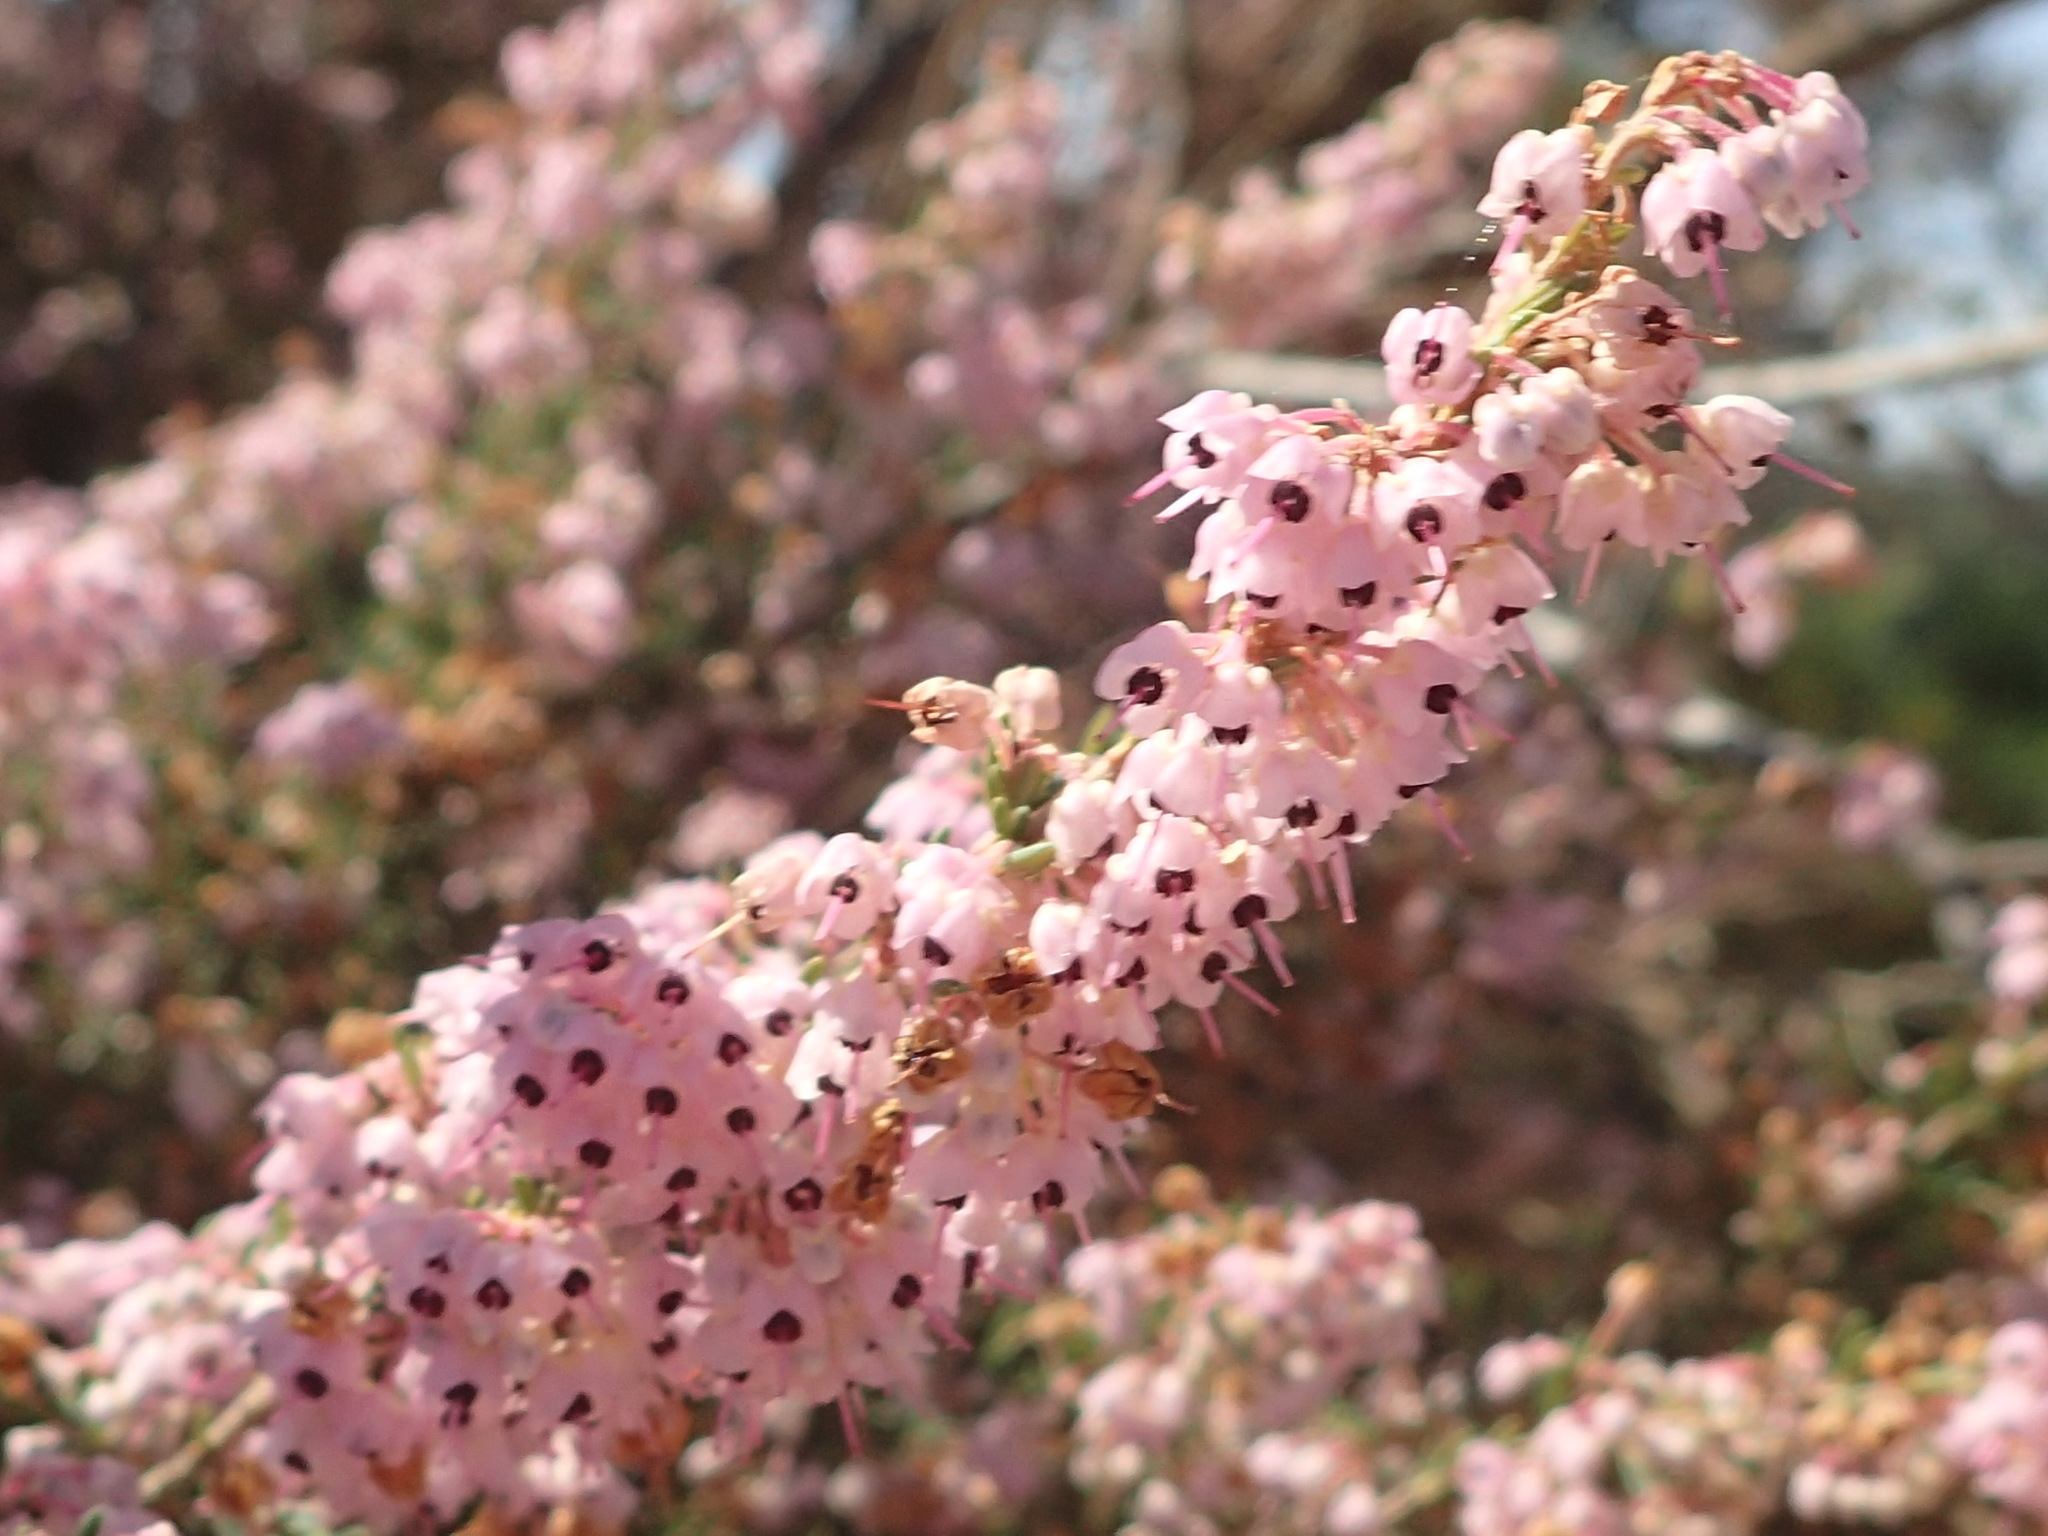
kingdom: Plantae
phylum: Tracheophyta
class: Magnoliopsida
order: Ericales
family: Ericaceae
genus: Erica
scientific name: Erica canaliculata
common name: Hairy grey heather
